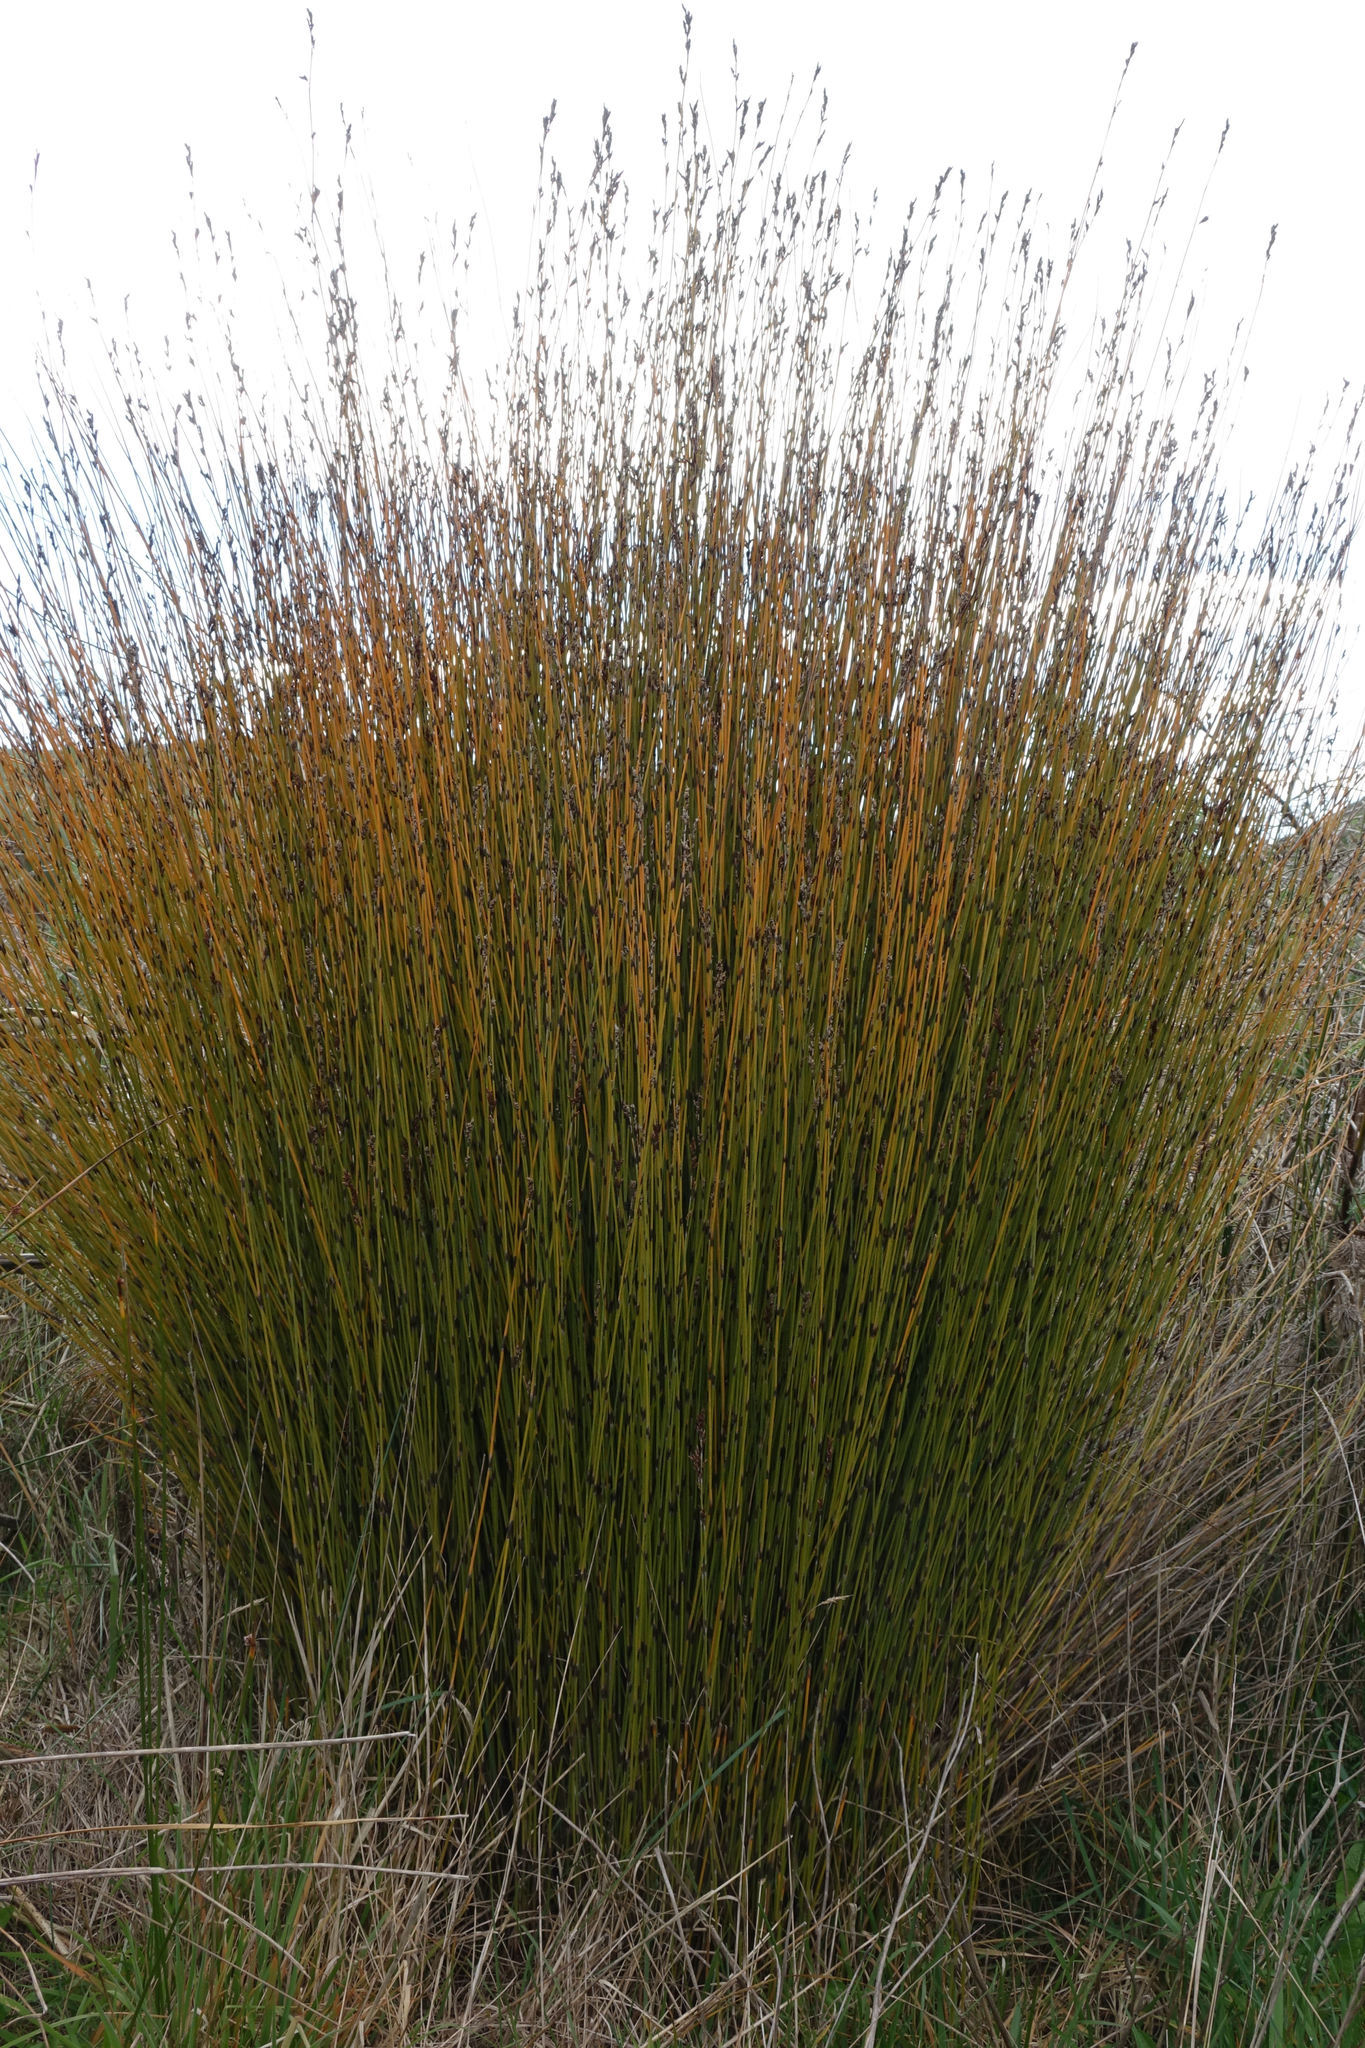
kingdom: Plantae
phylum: Tracheophyta
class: Liliopsida
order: Poales
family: Restionaceae
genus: Apodasmia
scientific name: Apodasmia similis
